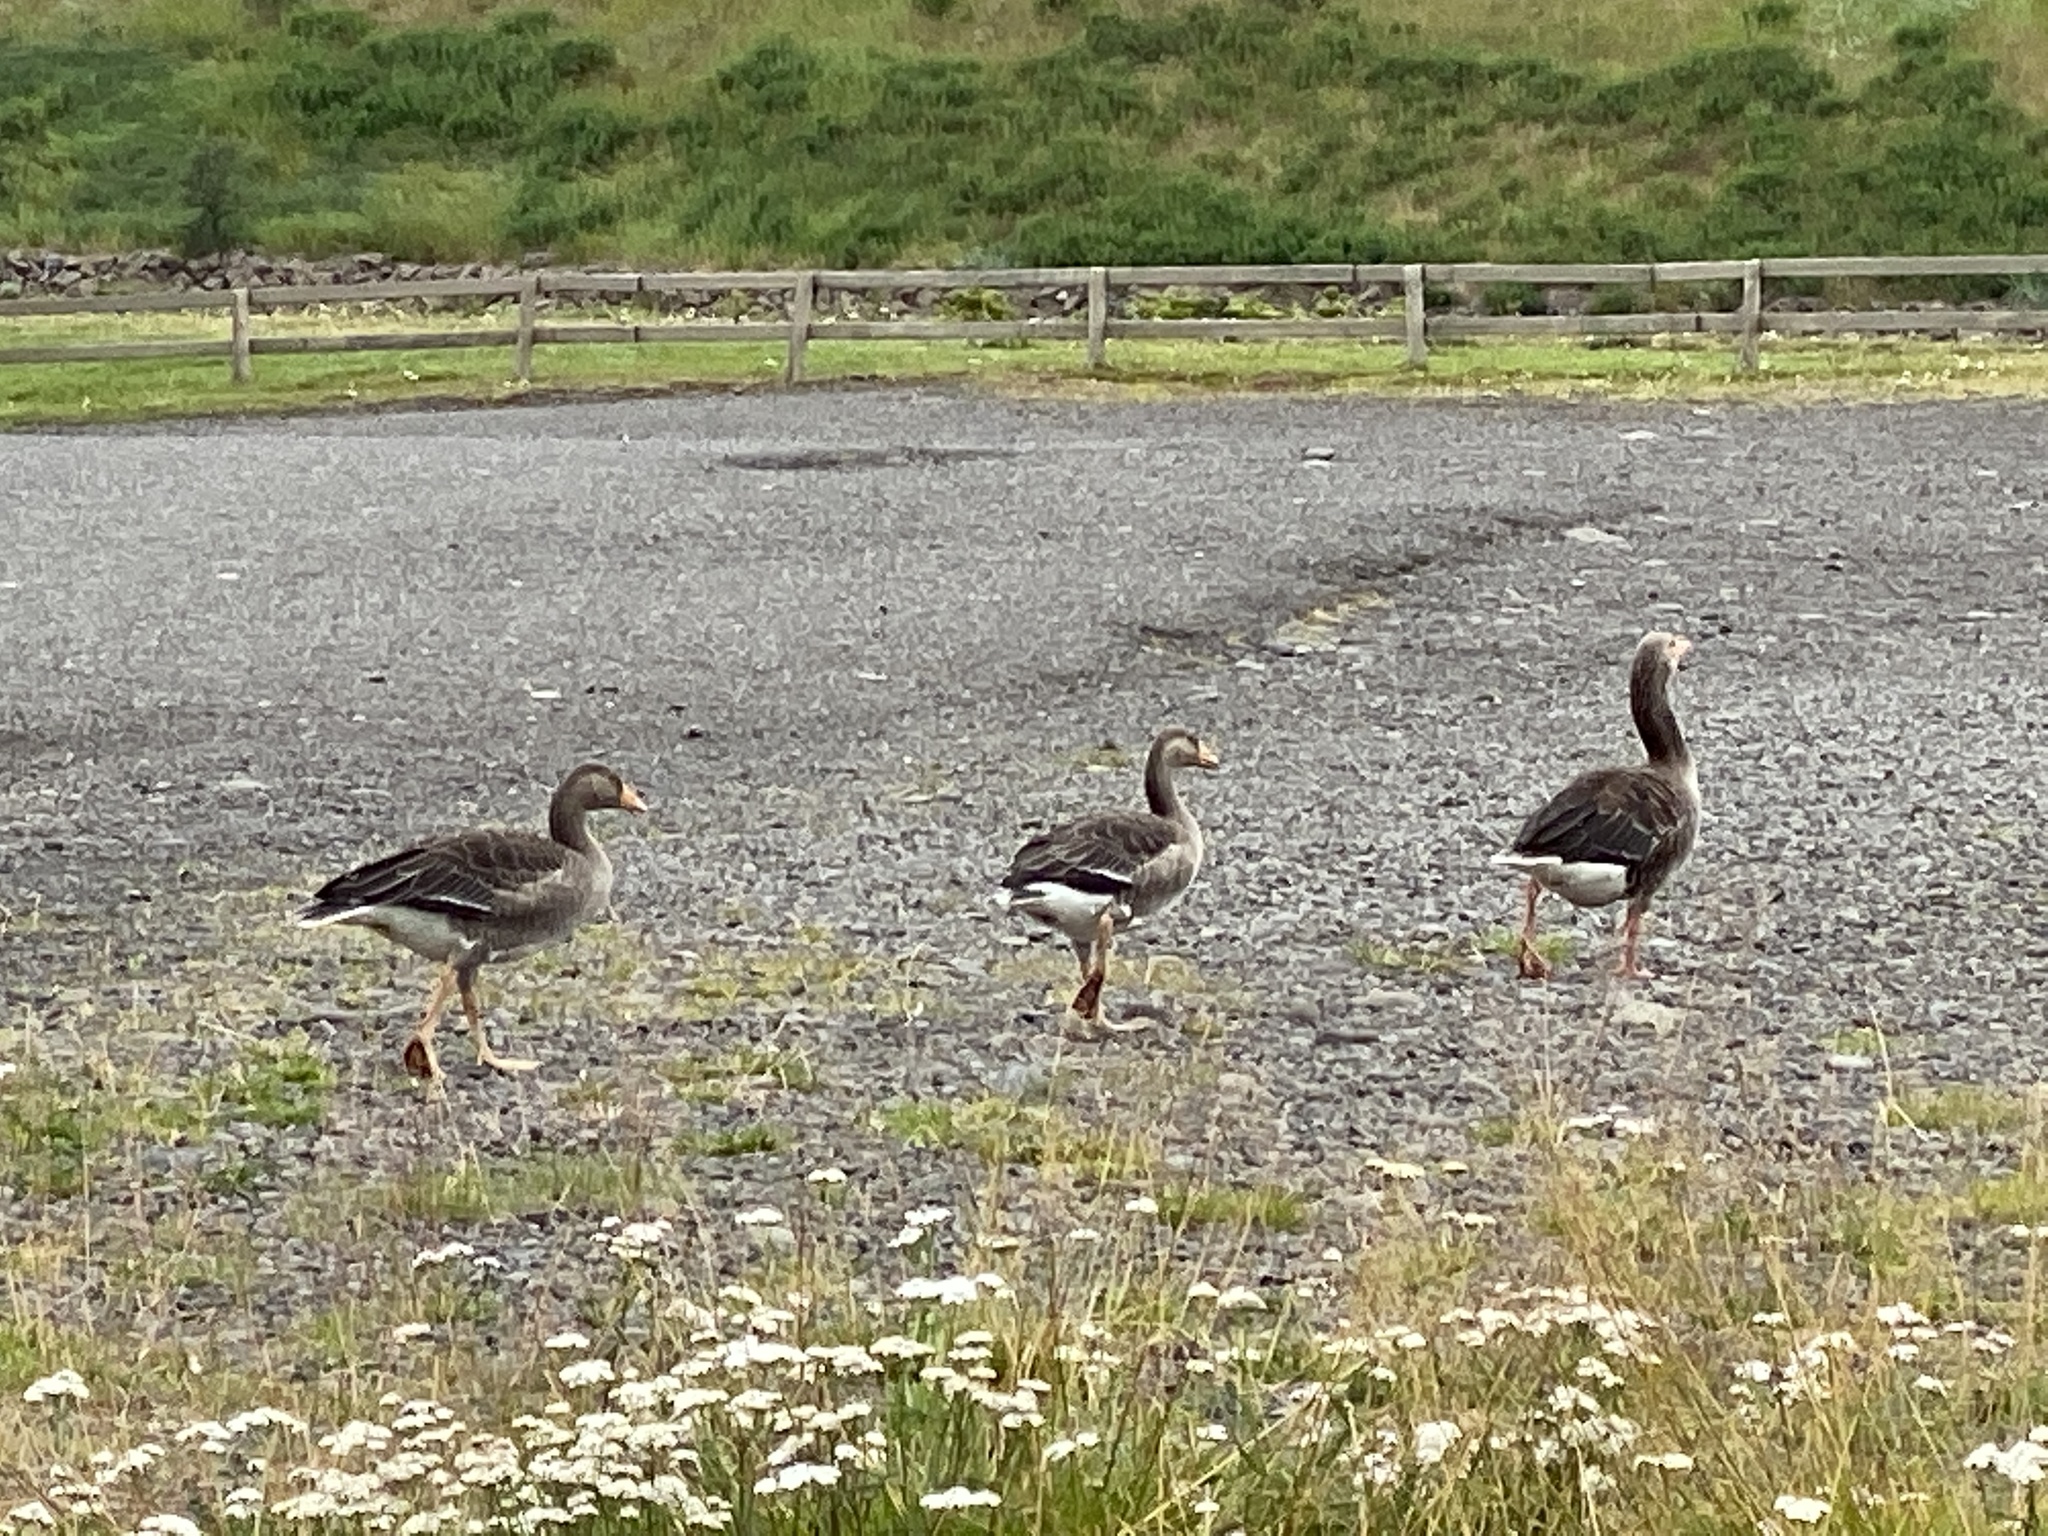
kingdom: Animalia
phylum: Chordata
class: Aves
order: Anseriformes
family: Anatidae
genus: Anser
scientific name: Anser anser
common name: Greylag goose
